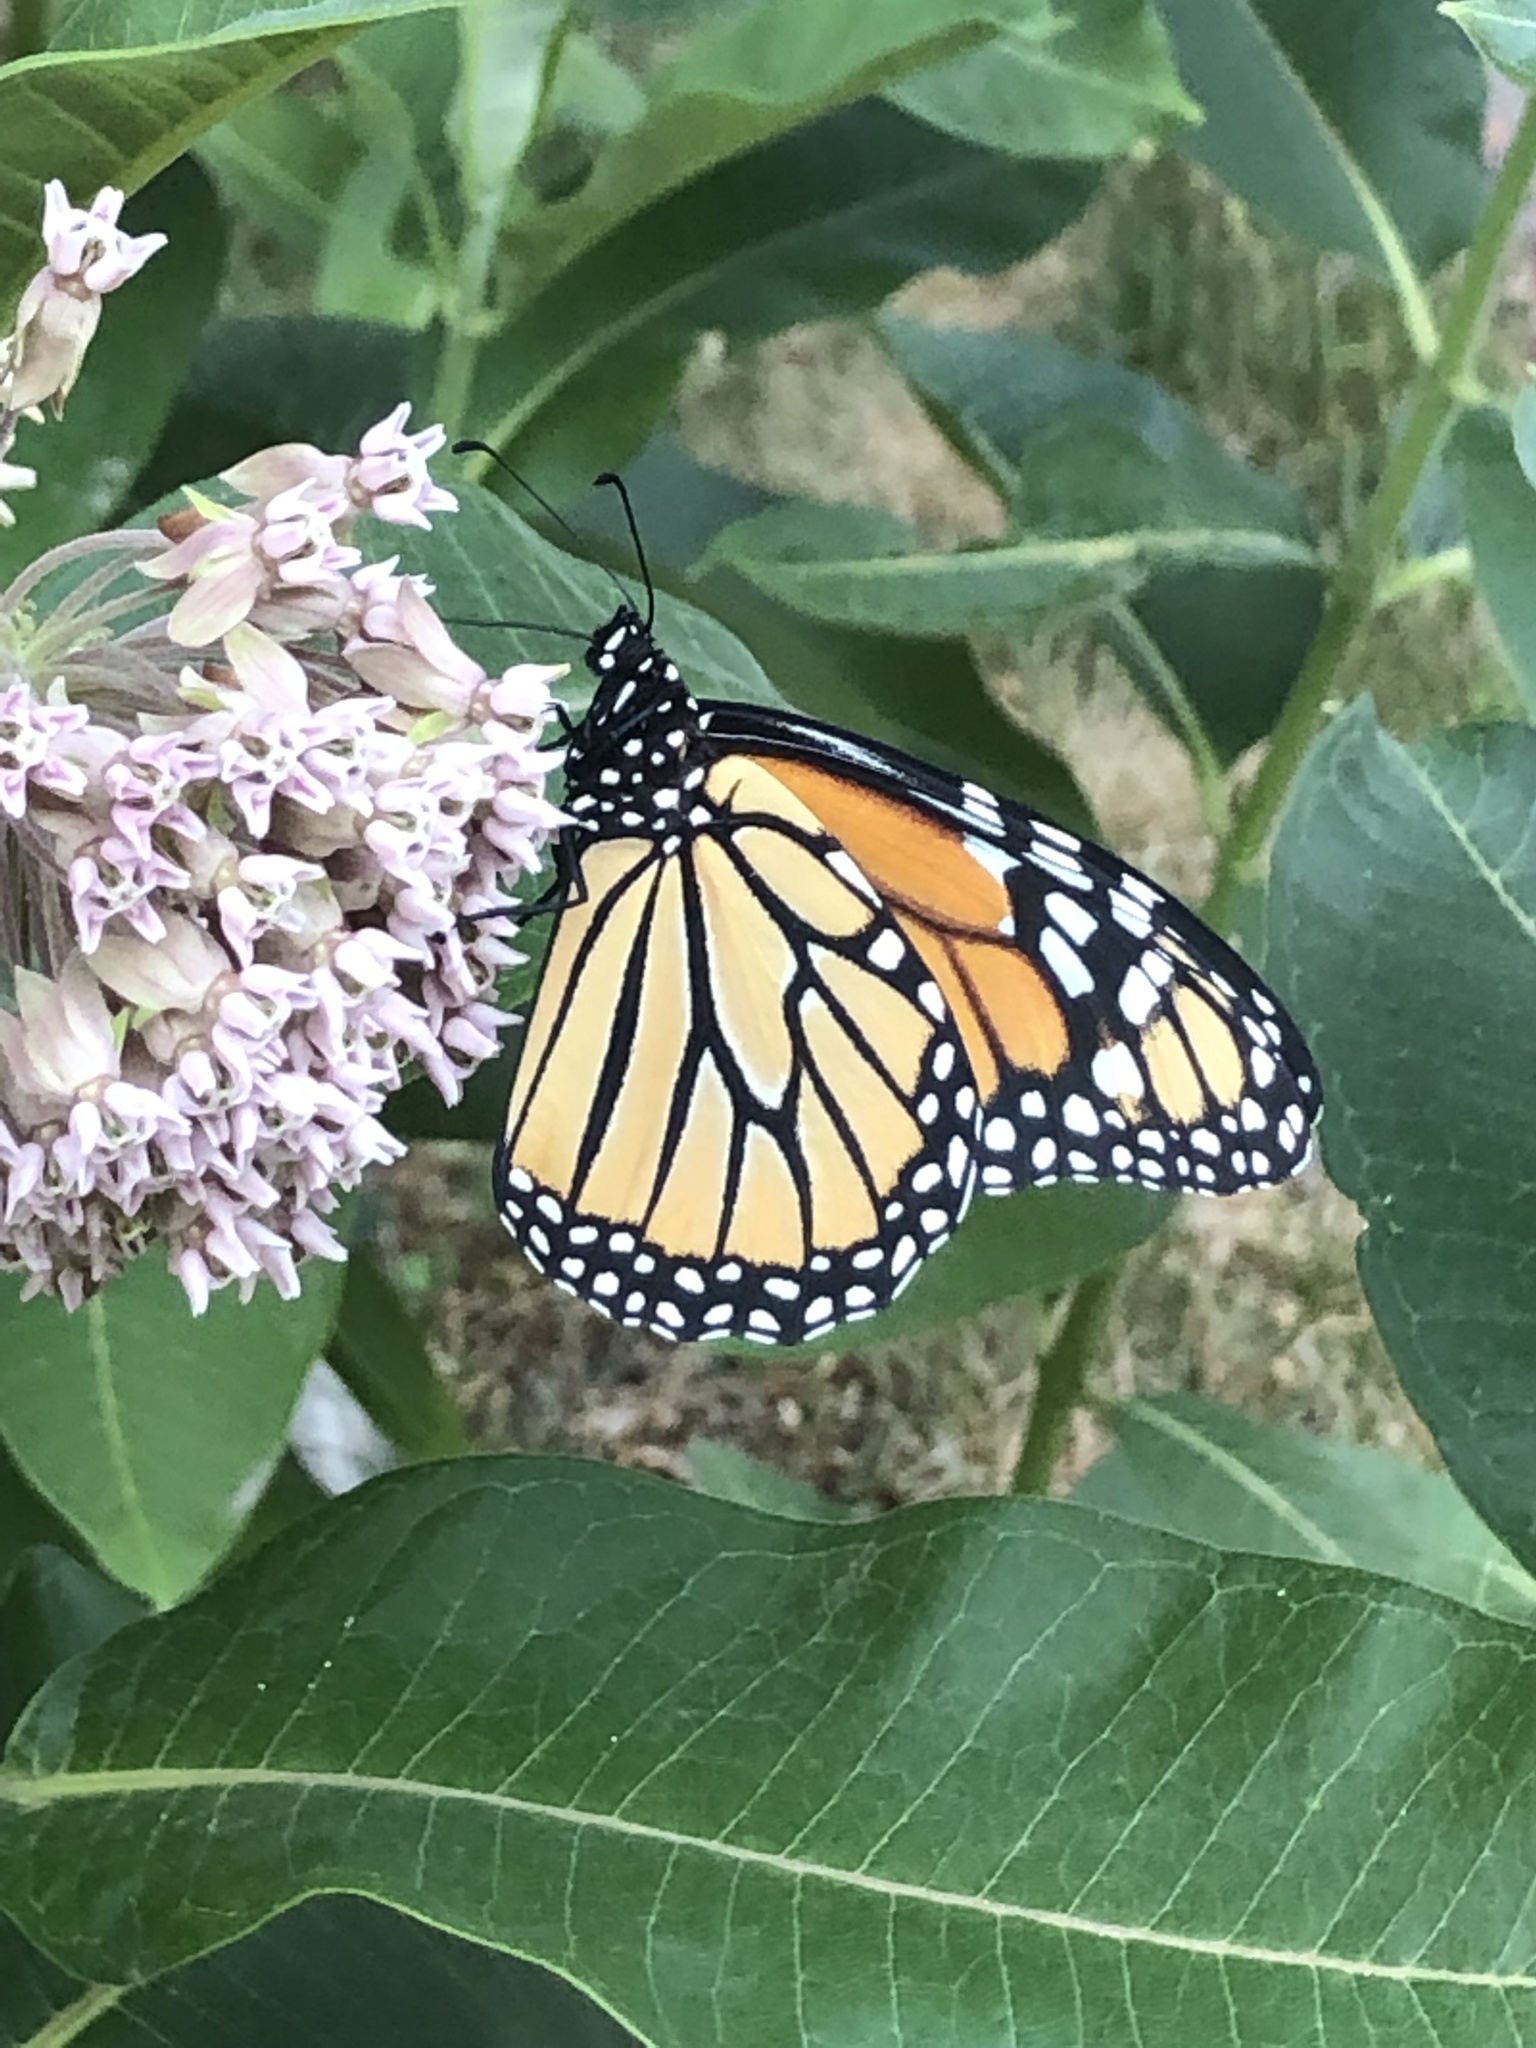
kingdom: Animalia
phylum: Arthropoda
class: Insecta
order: Lepidoptera
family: Nymphalidae
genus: Danaus
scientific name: Danaus plexippus
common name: Monarch
